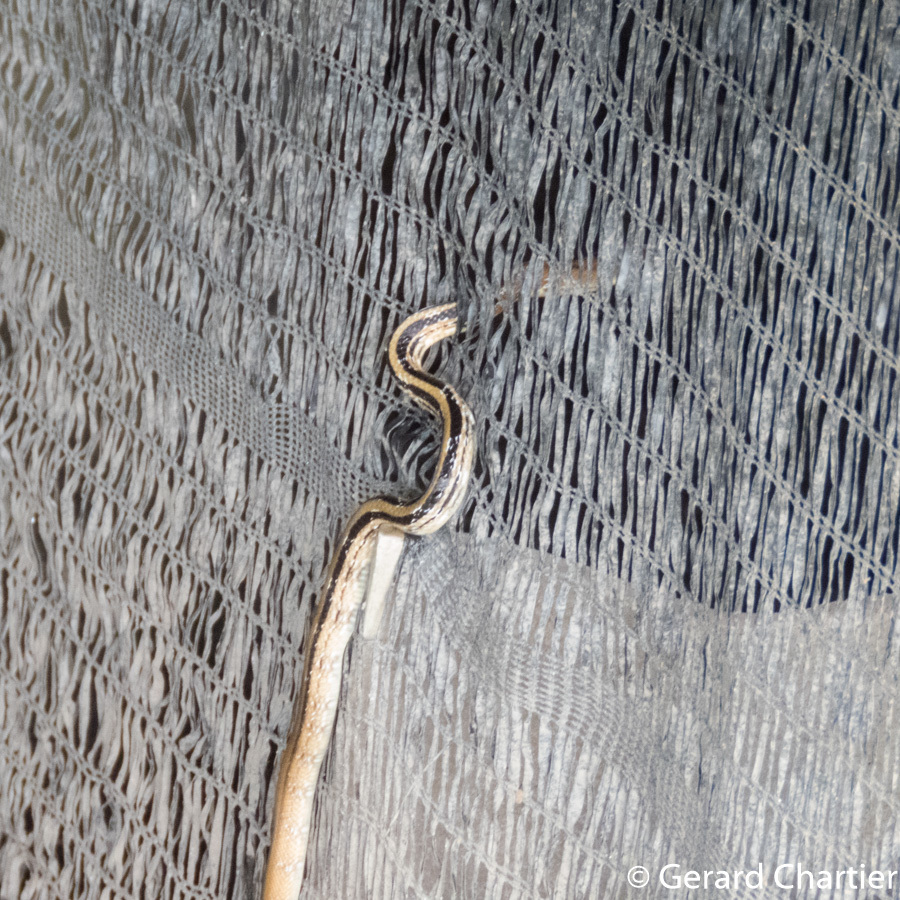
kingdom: Animalia
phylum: Chordata
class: Squamata
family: Colubridae
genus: Coelognathus
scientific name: Coelognathus radiatus
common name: Copperhead rat snake
